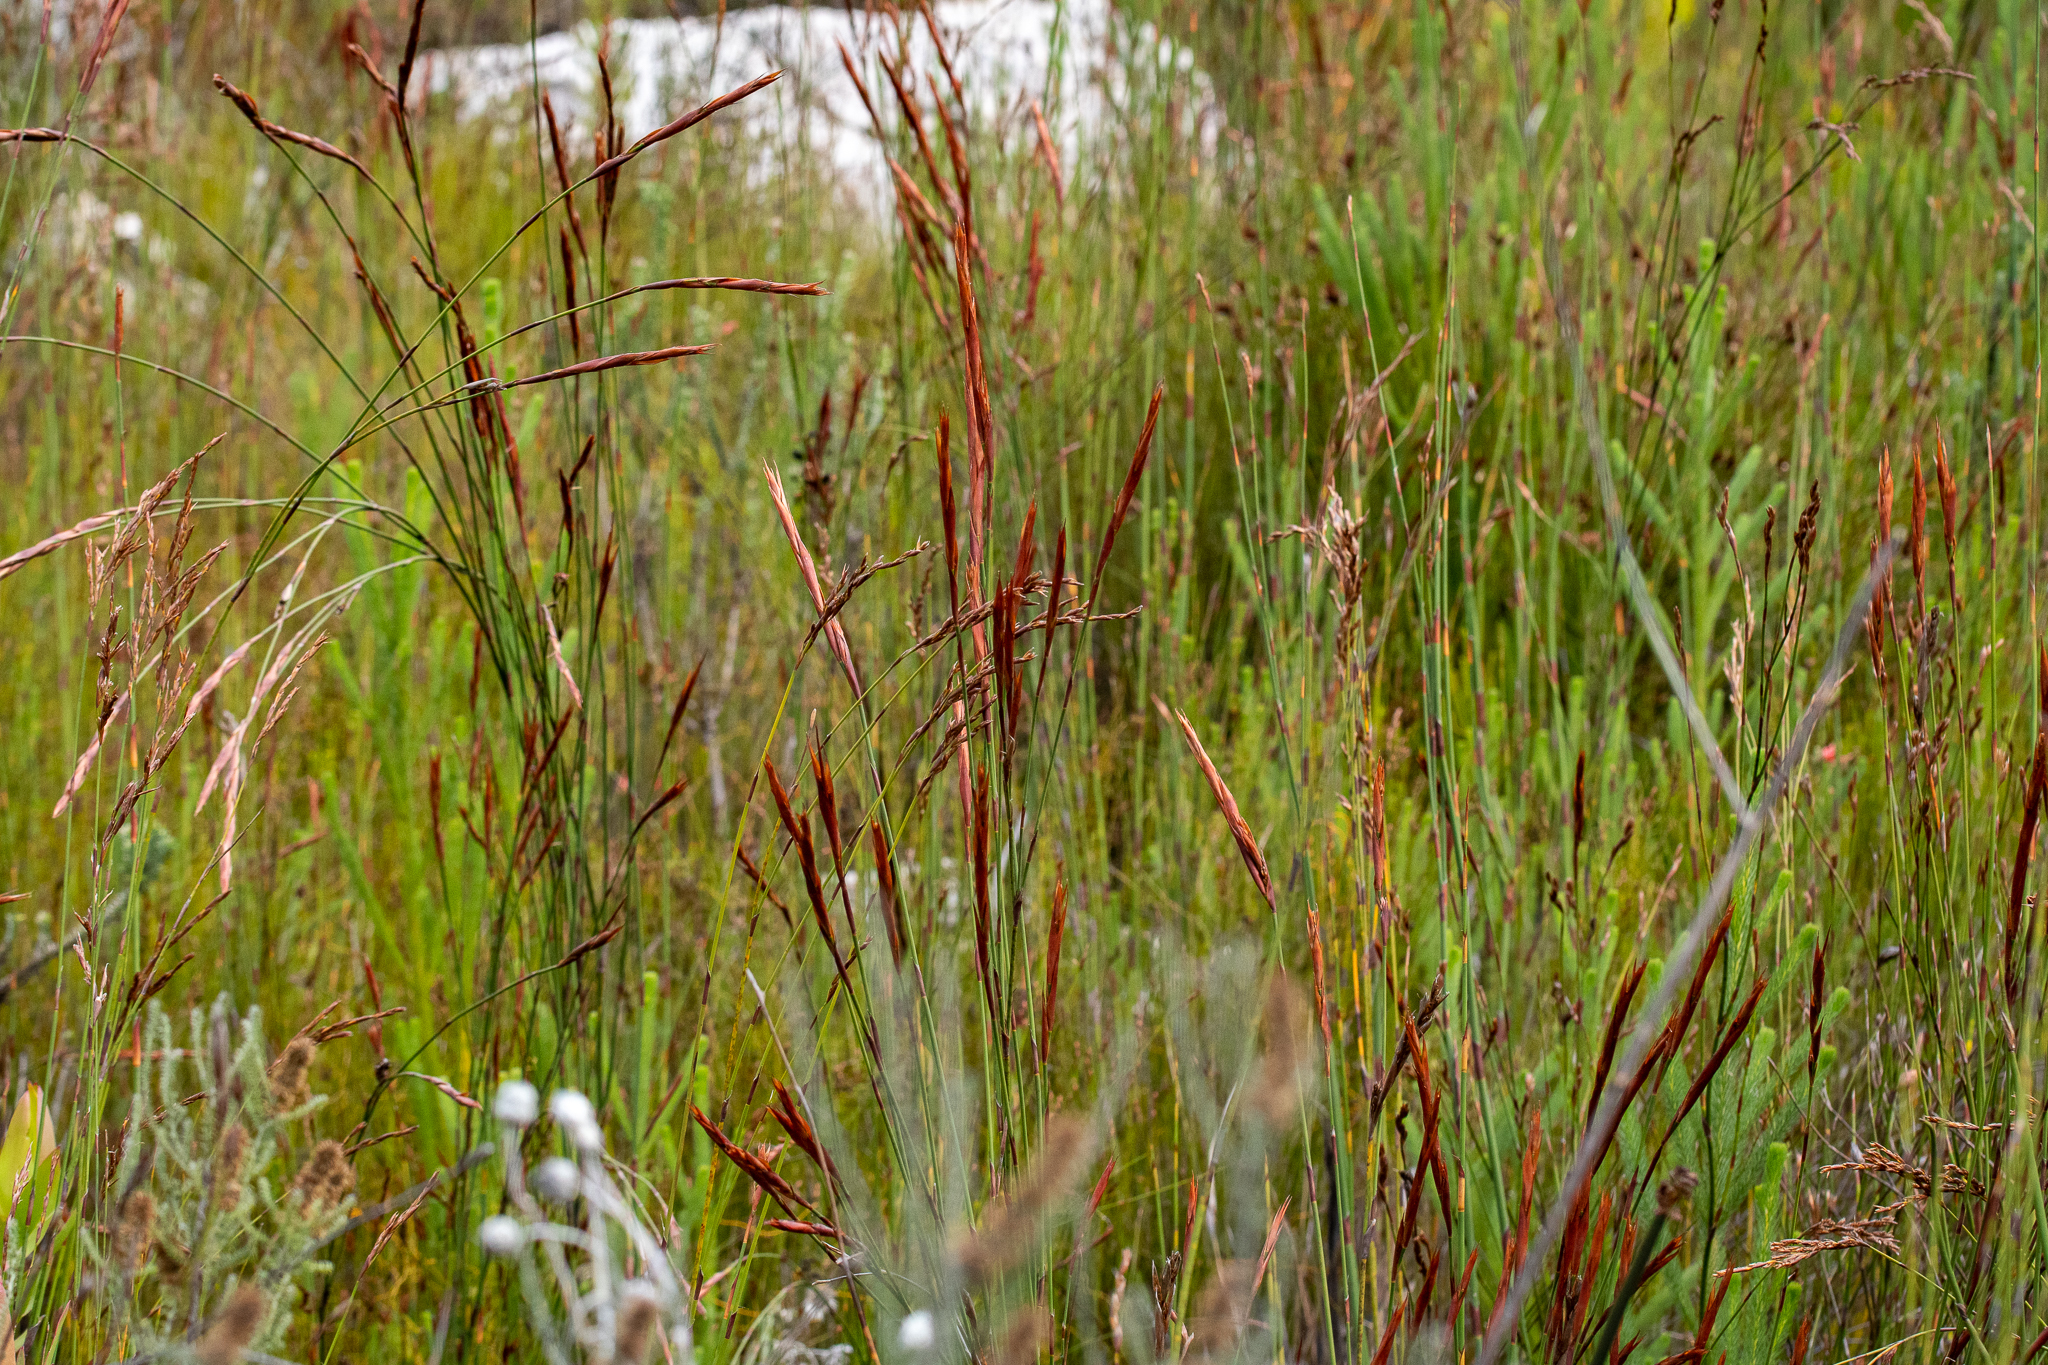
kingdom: Plantae
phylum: Tracheophyta
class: Liliopsida
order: Poales
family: Restionaceae
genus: Restio
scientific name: Restio dispar
